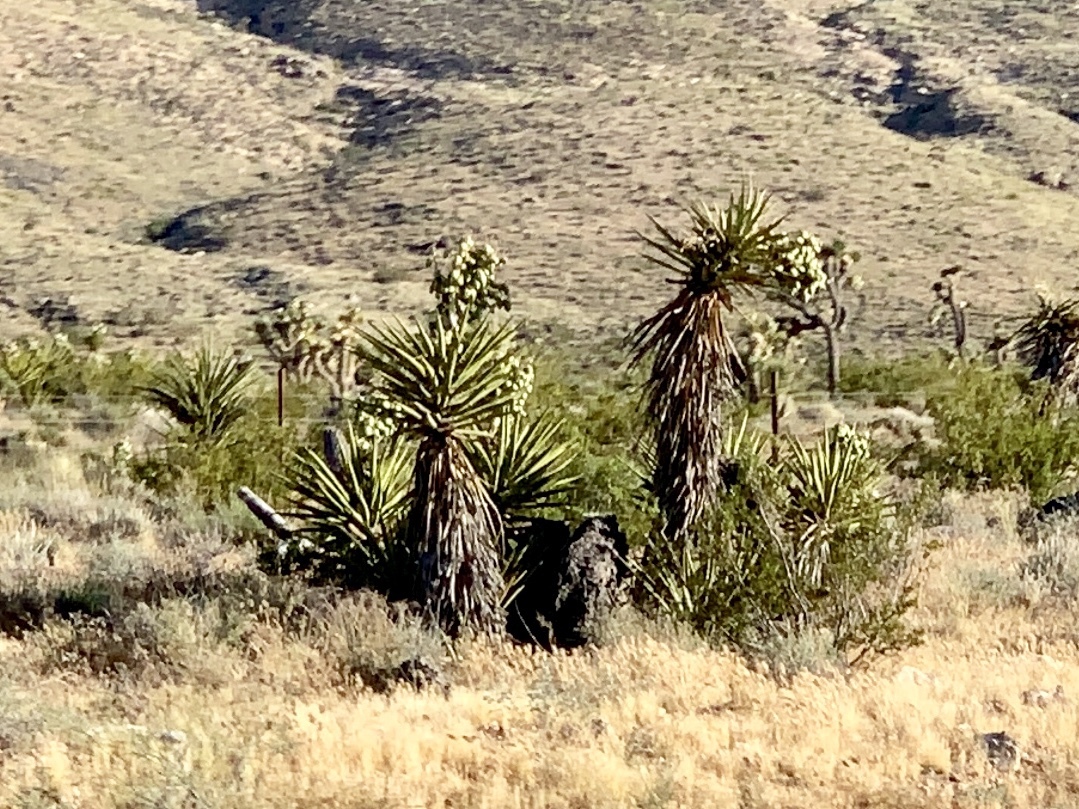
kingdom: Plantae
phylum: Tracheophyta
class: Liliopsida
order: Asparagales
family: Asparagaceae
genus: Yucca
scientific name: Yucca schidigera
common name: Mojave yucca
